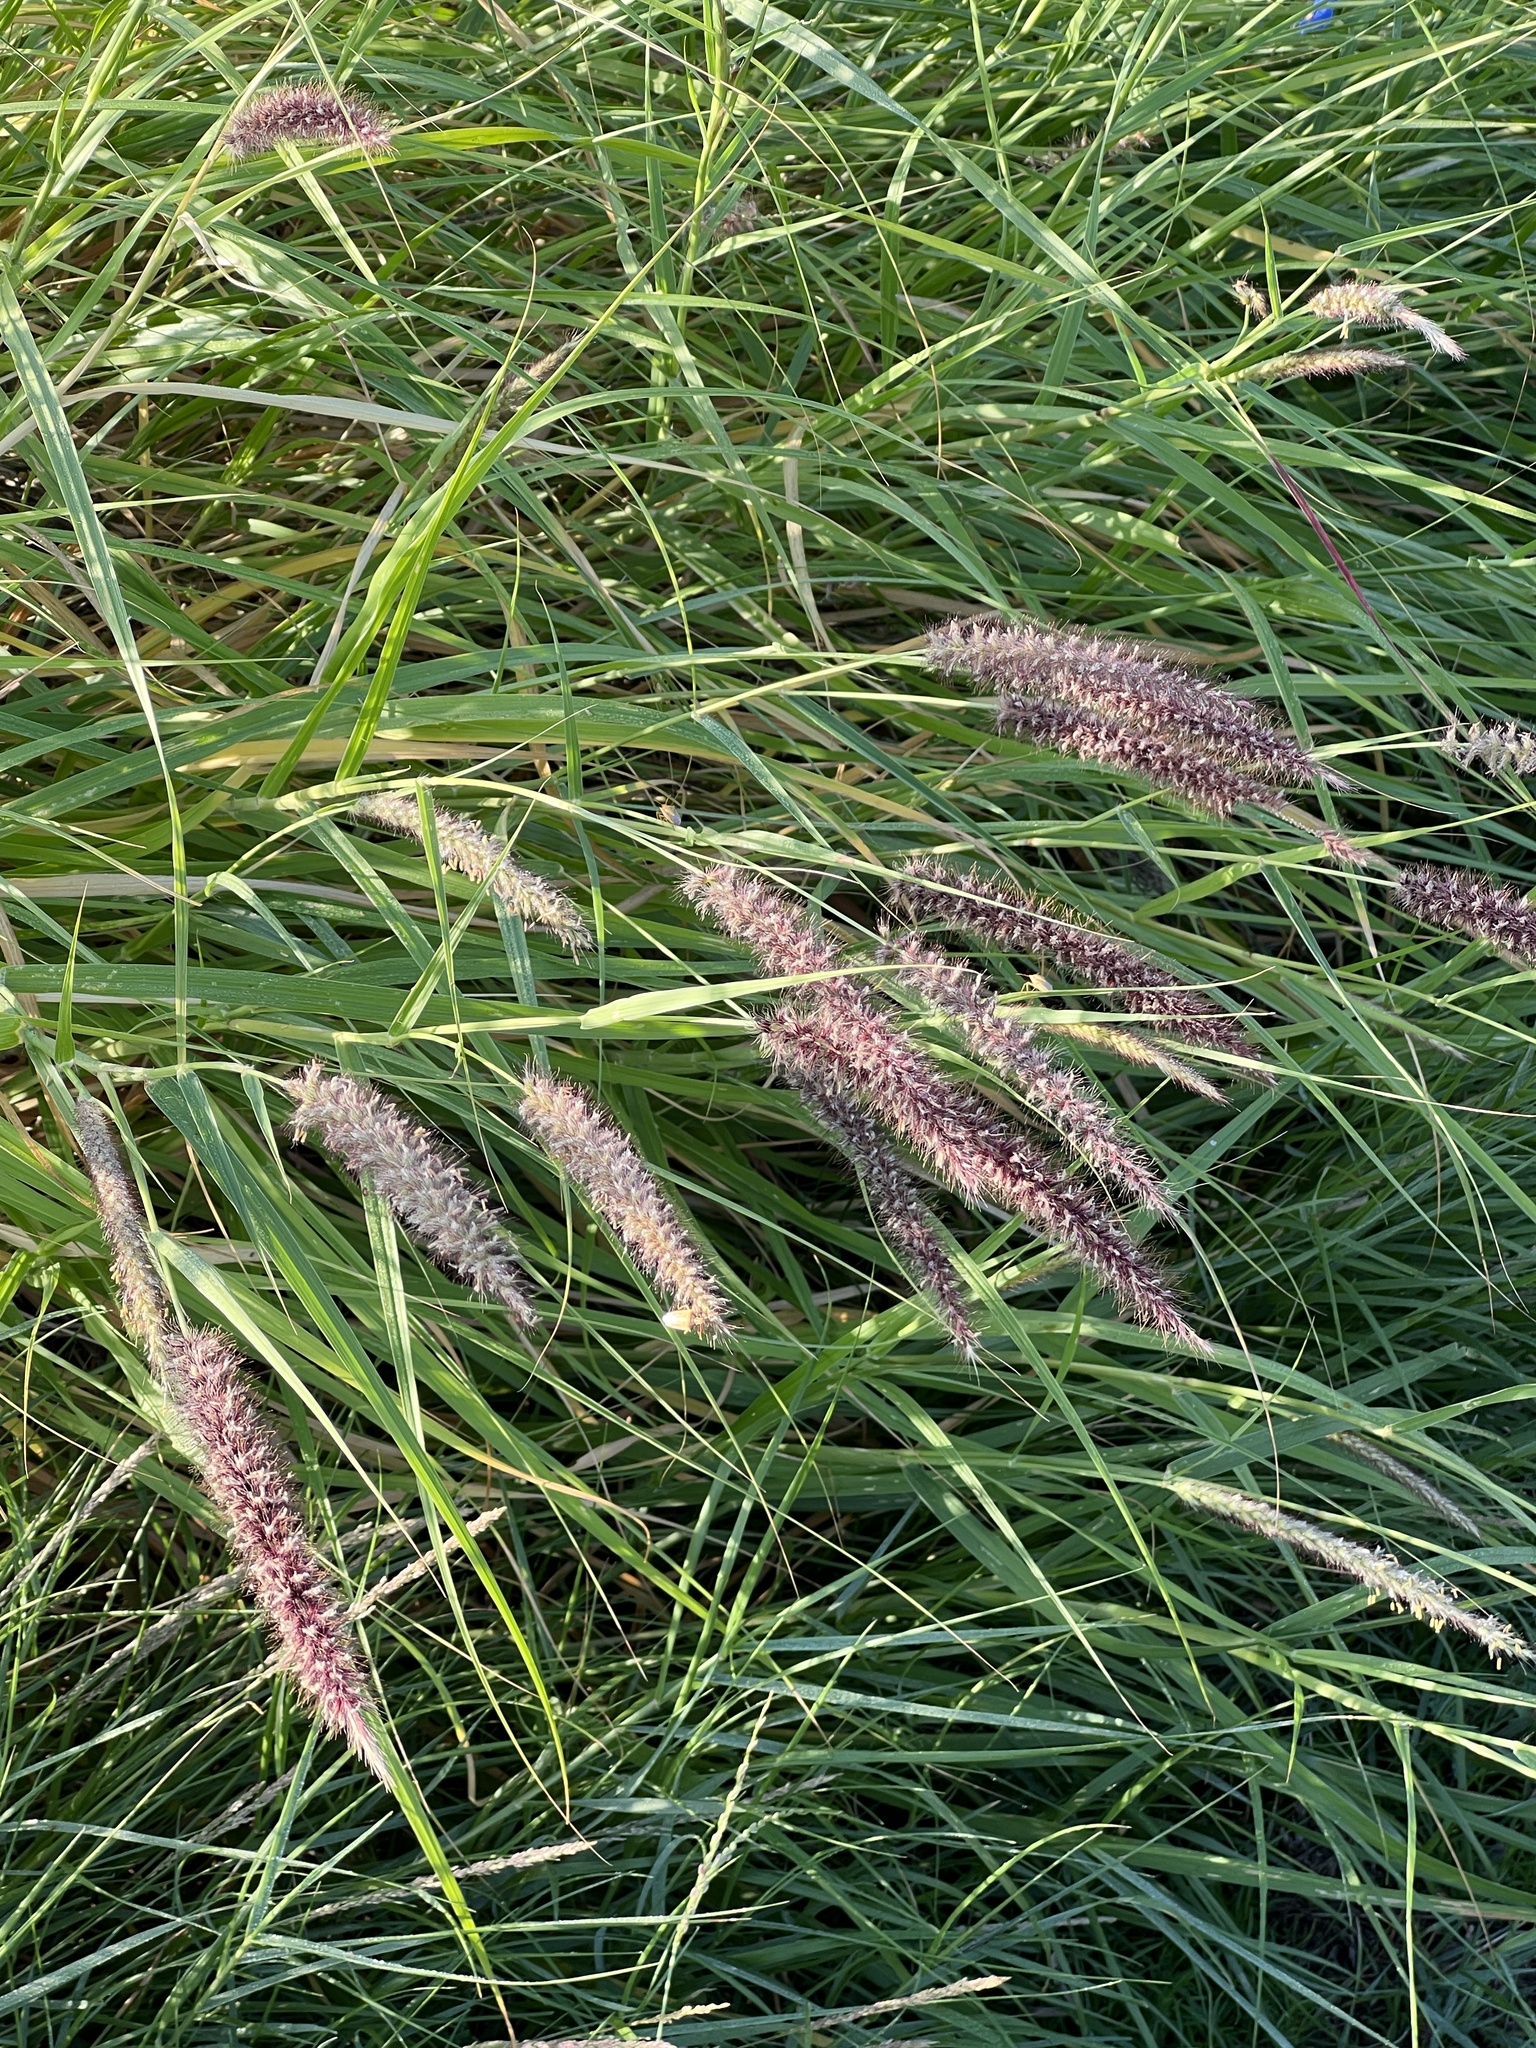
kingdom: Plantae
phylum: Tracheophyta
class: Liliopsida
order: Poales
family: Poaceae
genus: Cenchrus
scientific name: Cenchrus ciliaris
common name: Buffelgrass
